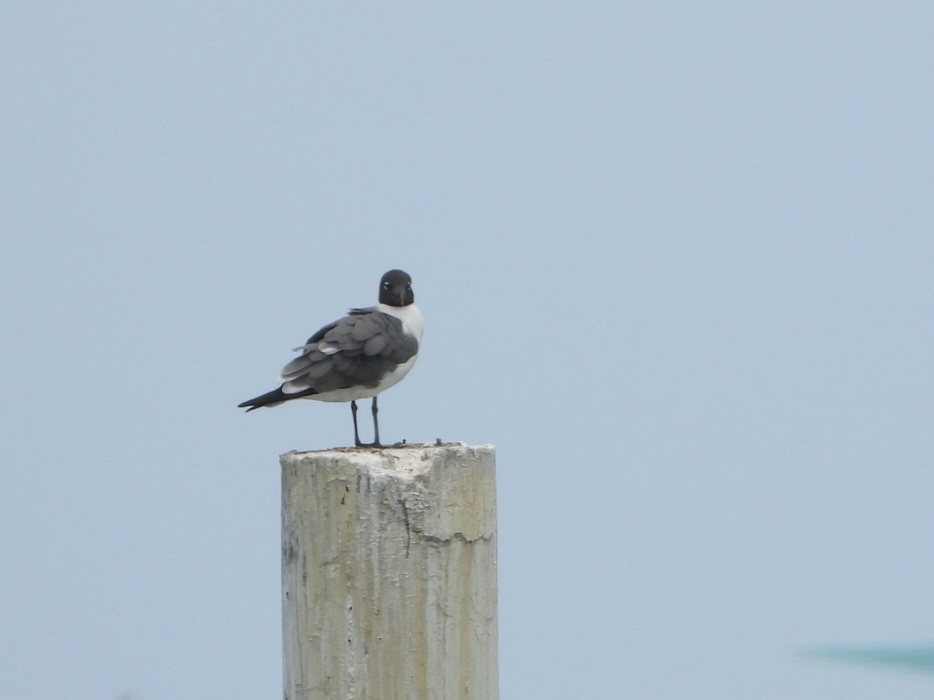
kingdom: Animalia
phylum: Chordata
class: Aves
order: Charadriiformes
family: Laridae
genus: Leucophaeus
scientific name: Leucophaeus atricilla
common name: Laughing gull
